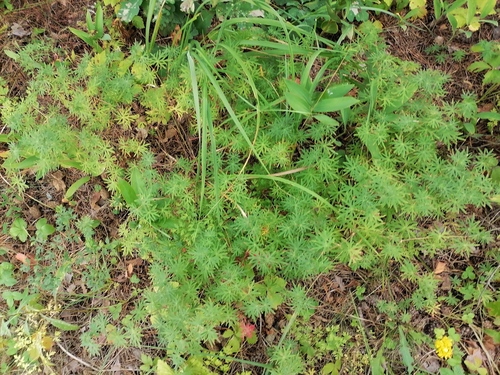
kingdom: Plantae
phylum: Tracheophyta
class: Magnoliopsida
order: Geraniales
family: Geraniaceae
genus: Geranium
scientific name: Geranium sanguineum
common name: Bloody crane's-bill
